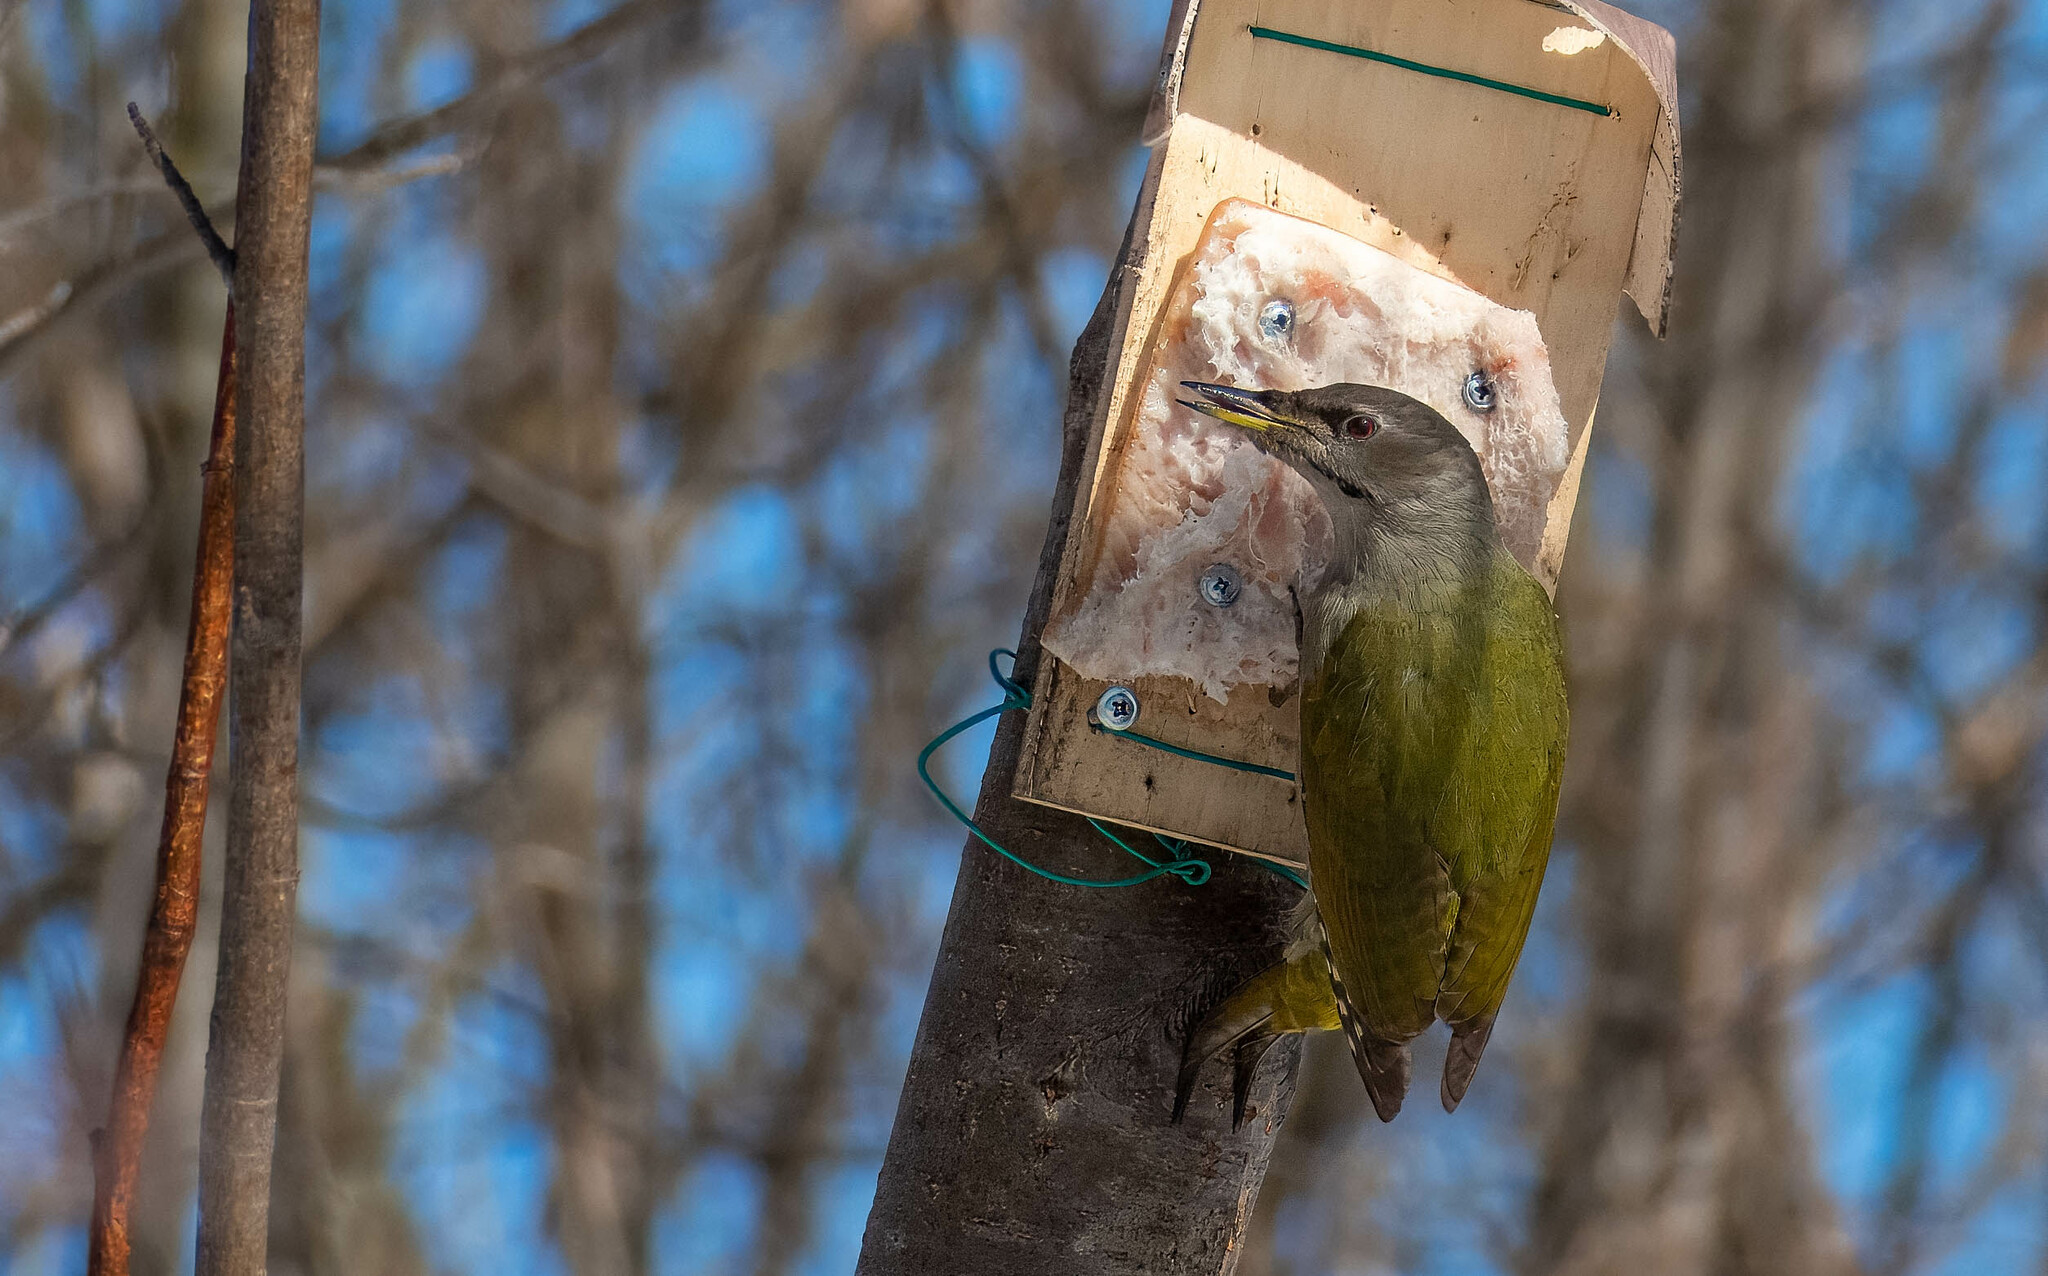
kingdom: Animalia
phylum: Chordata
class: Aves
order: Piciformes
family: Picidae
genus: Picus
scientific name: Picus canus
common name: Grey-headed woodpecker
